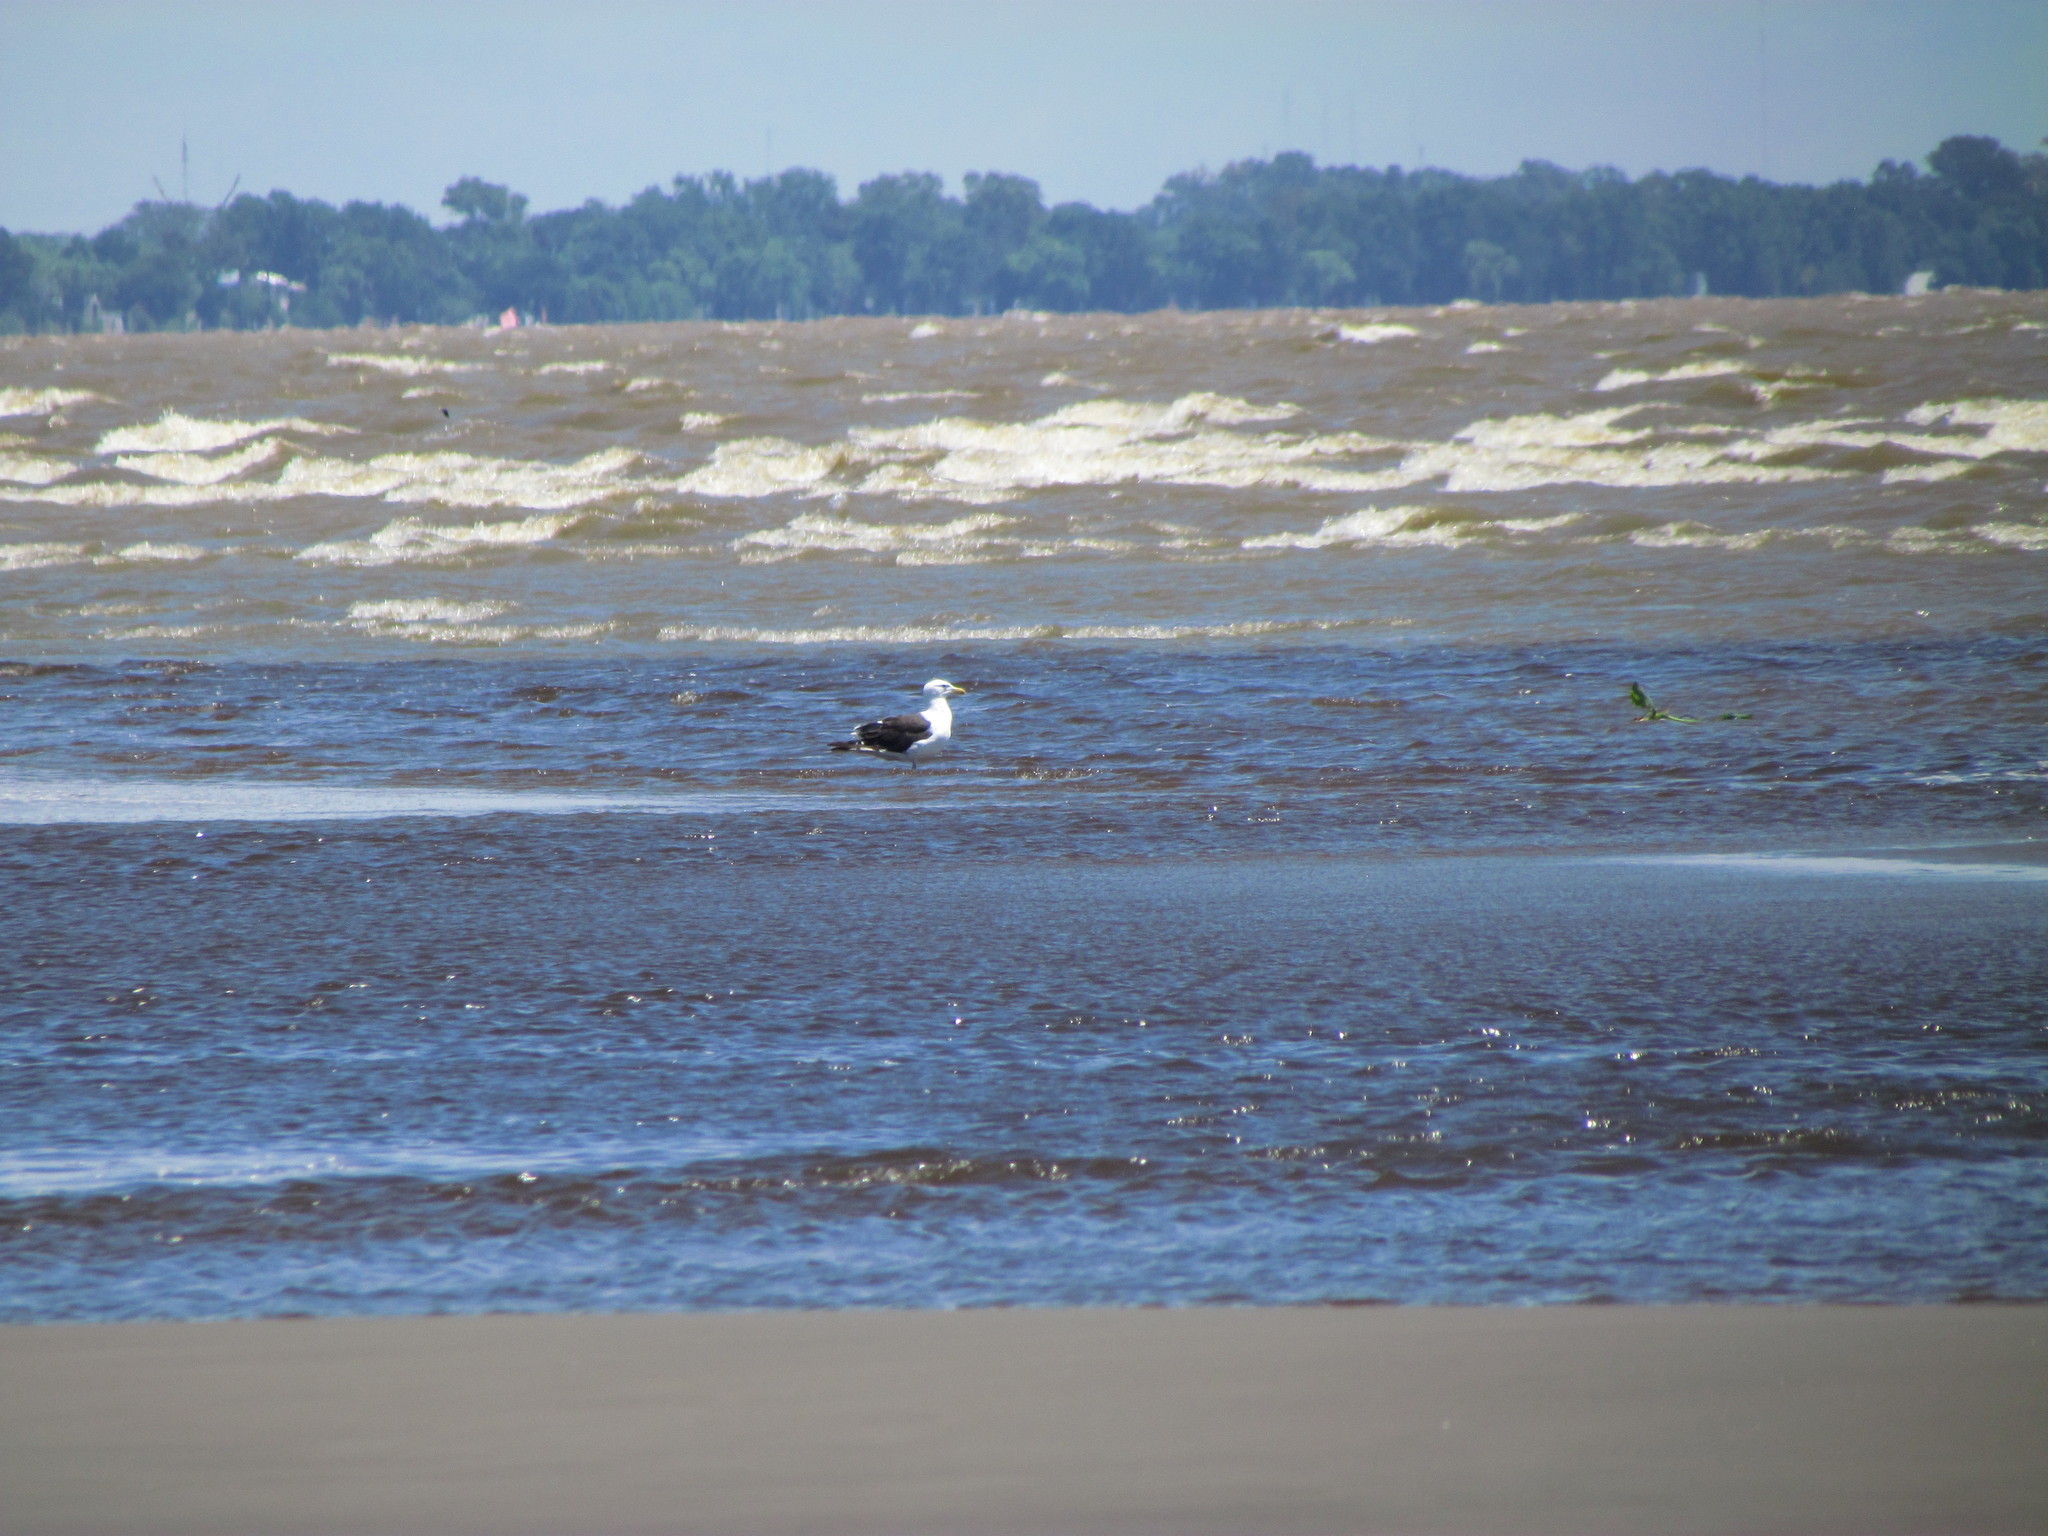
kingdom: Animalia
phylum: Chordata
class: Aves
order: Charadriiformes
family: Laridae
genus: Larus
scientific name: Larus dominicanus
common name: Kelp gull
